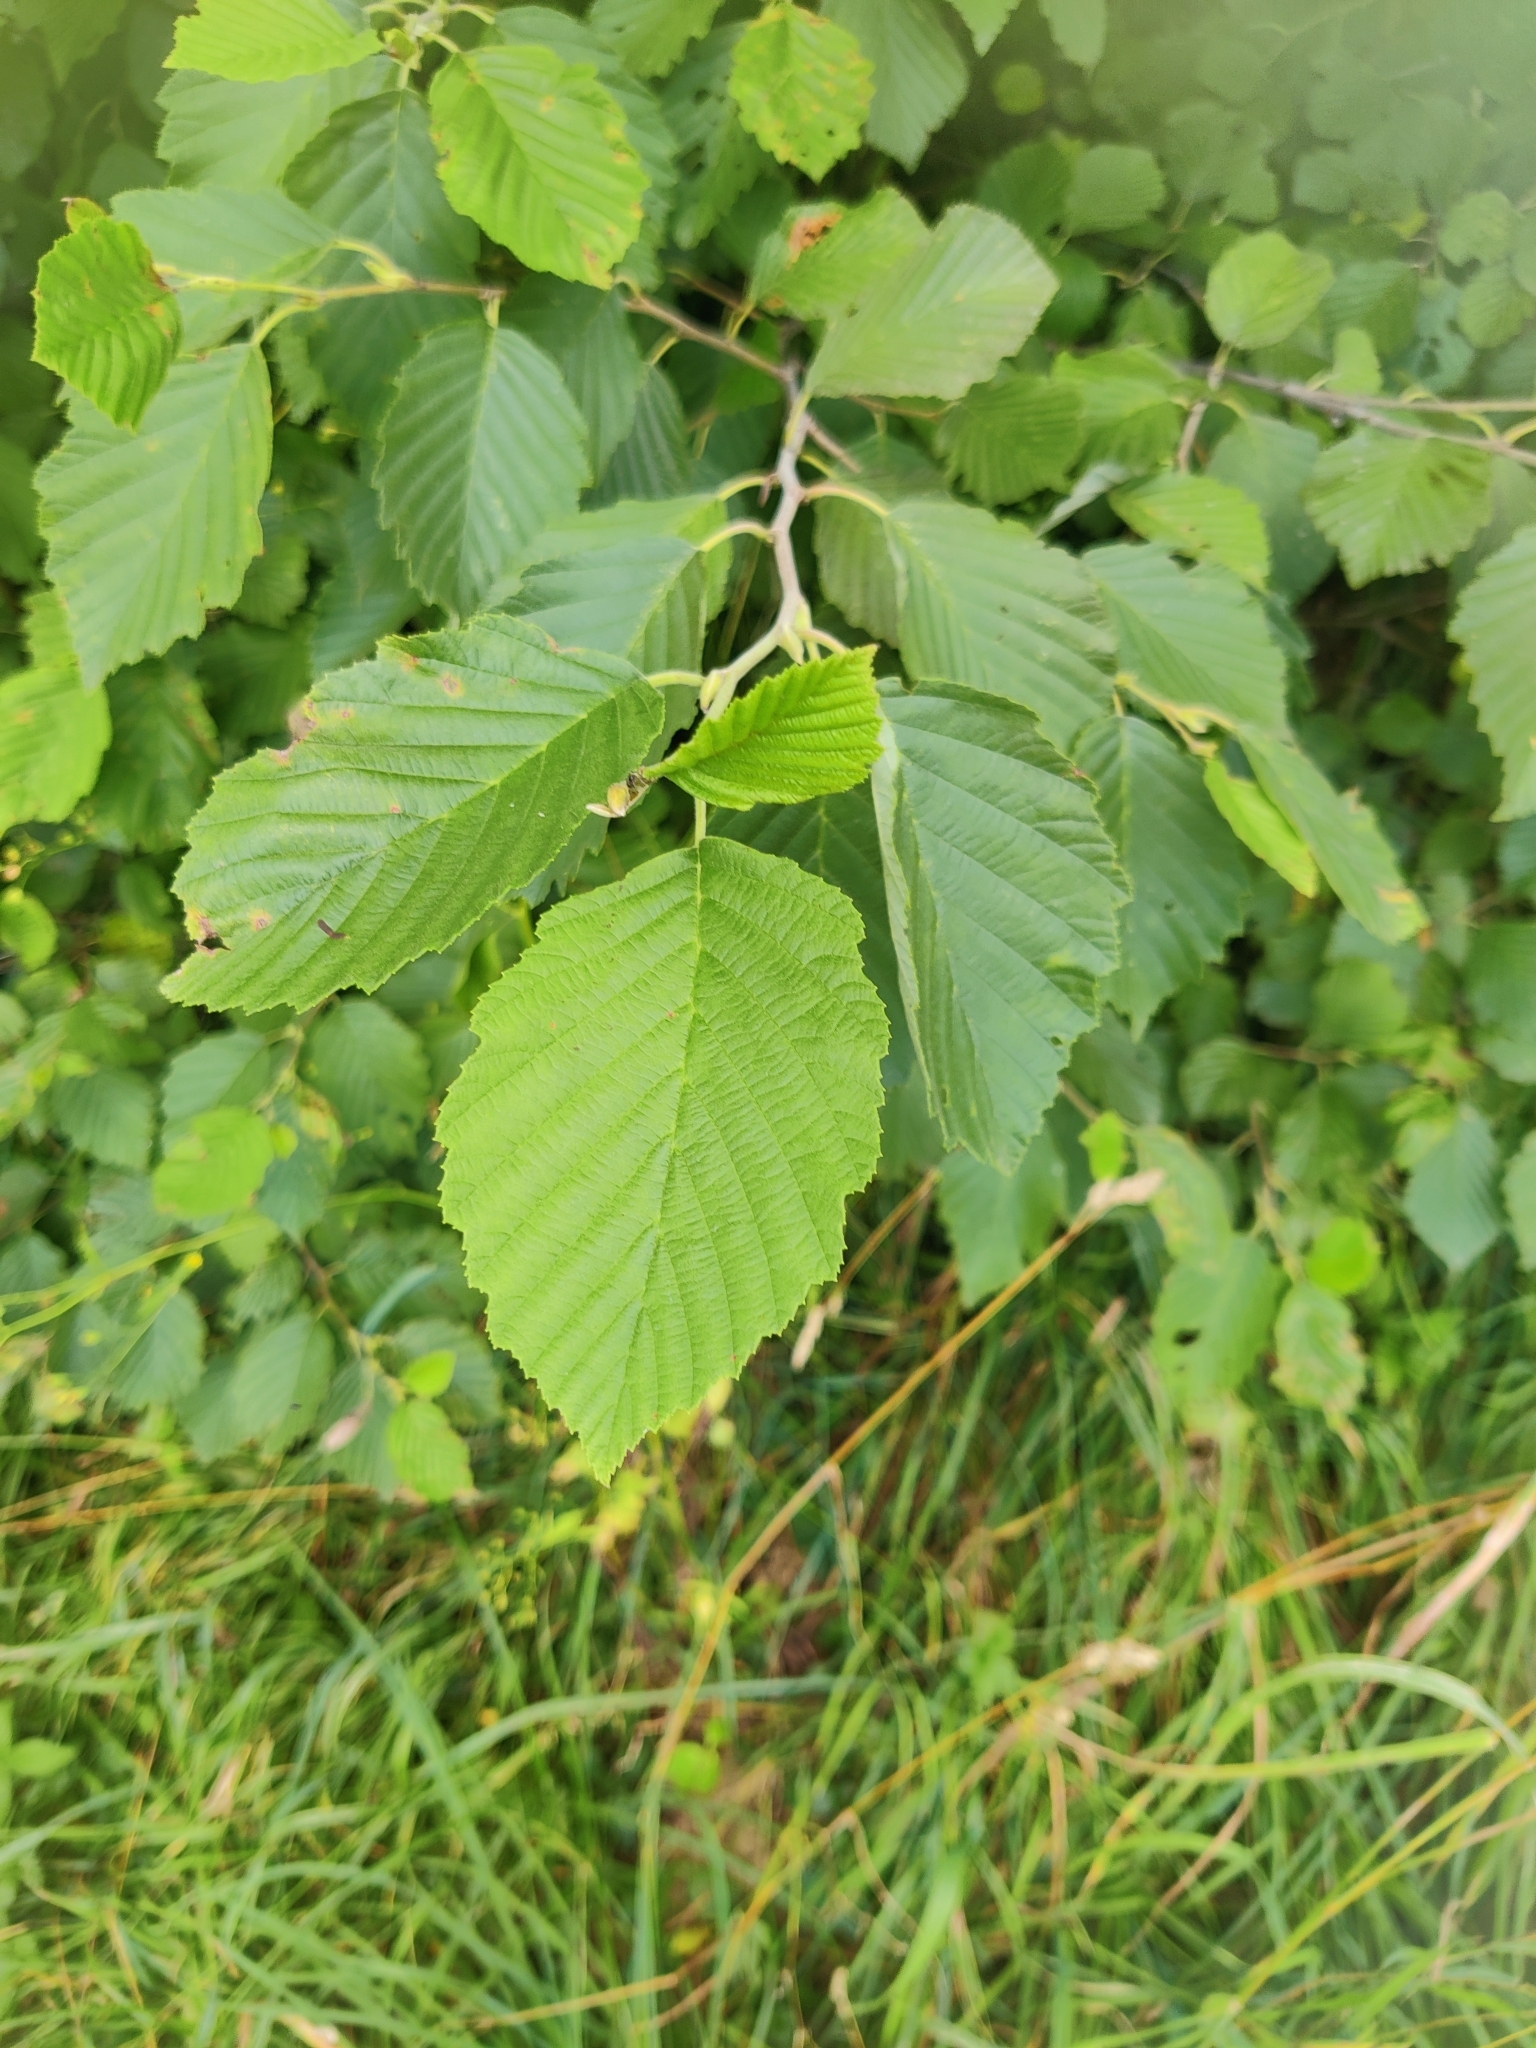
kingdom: Plantae
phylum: Tracheophyta
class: Magnoliopsida
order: Fagales
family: Betulaceae
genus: Alnus
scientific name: Alnus incana
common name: Grey alder
